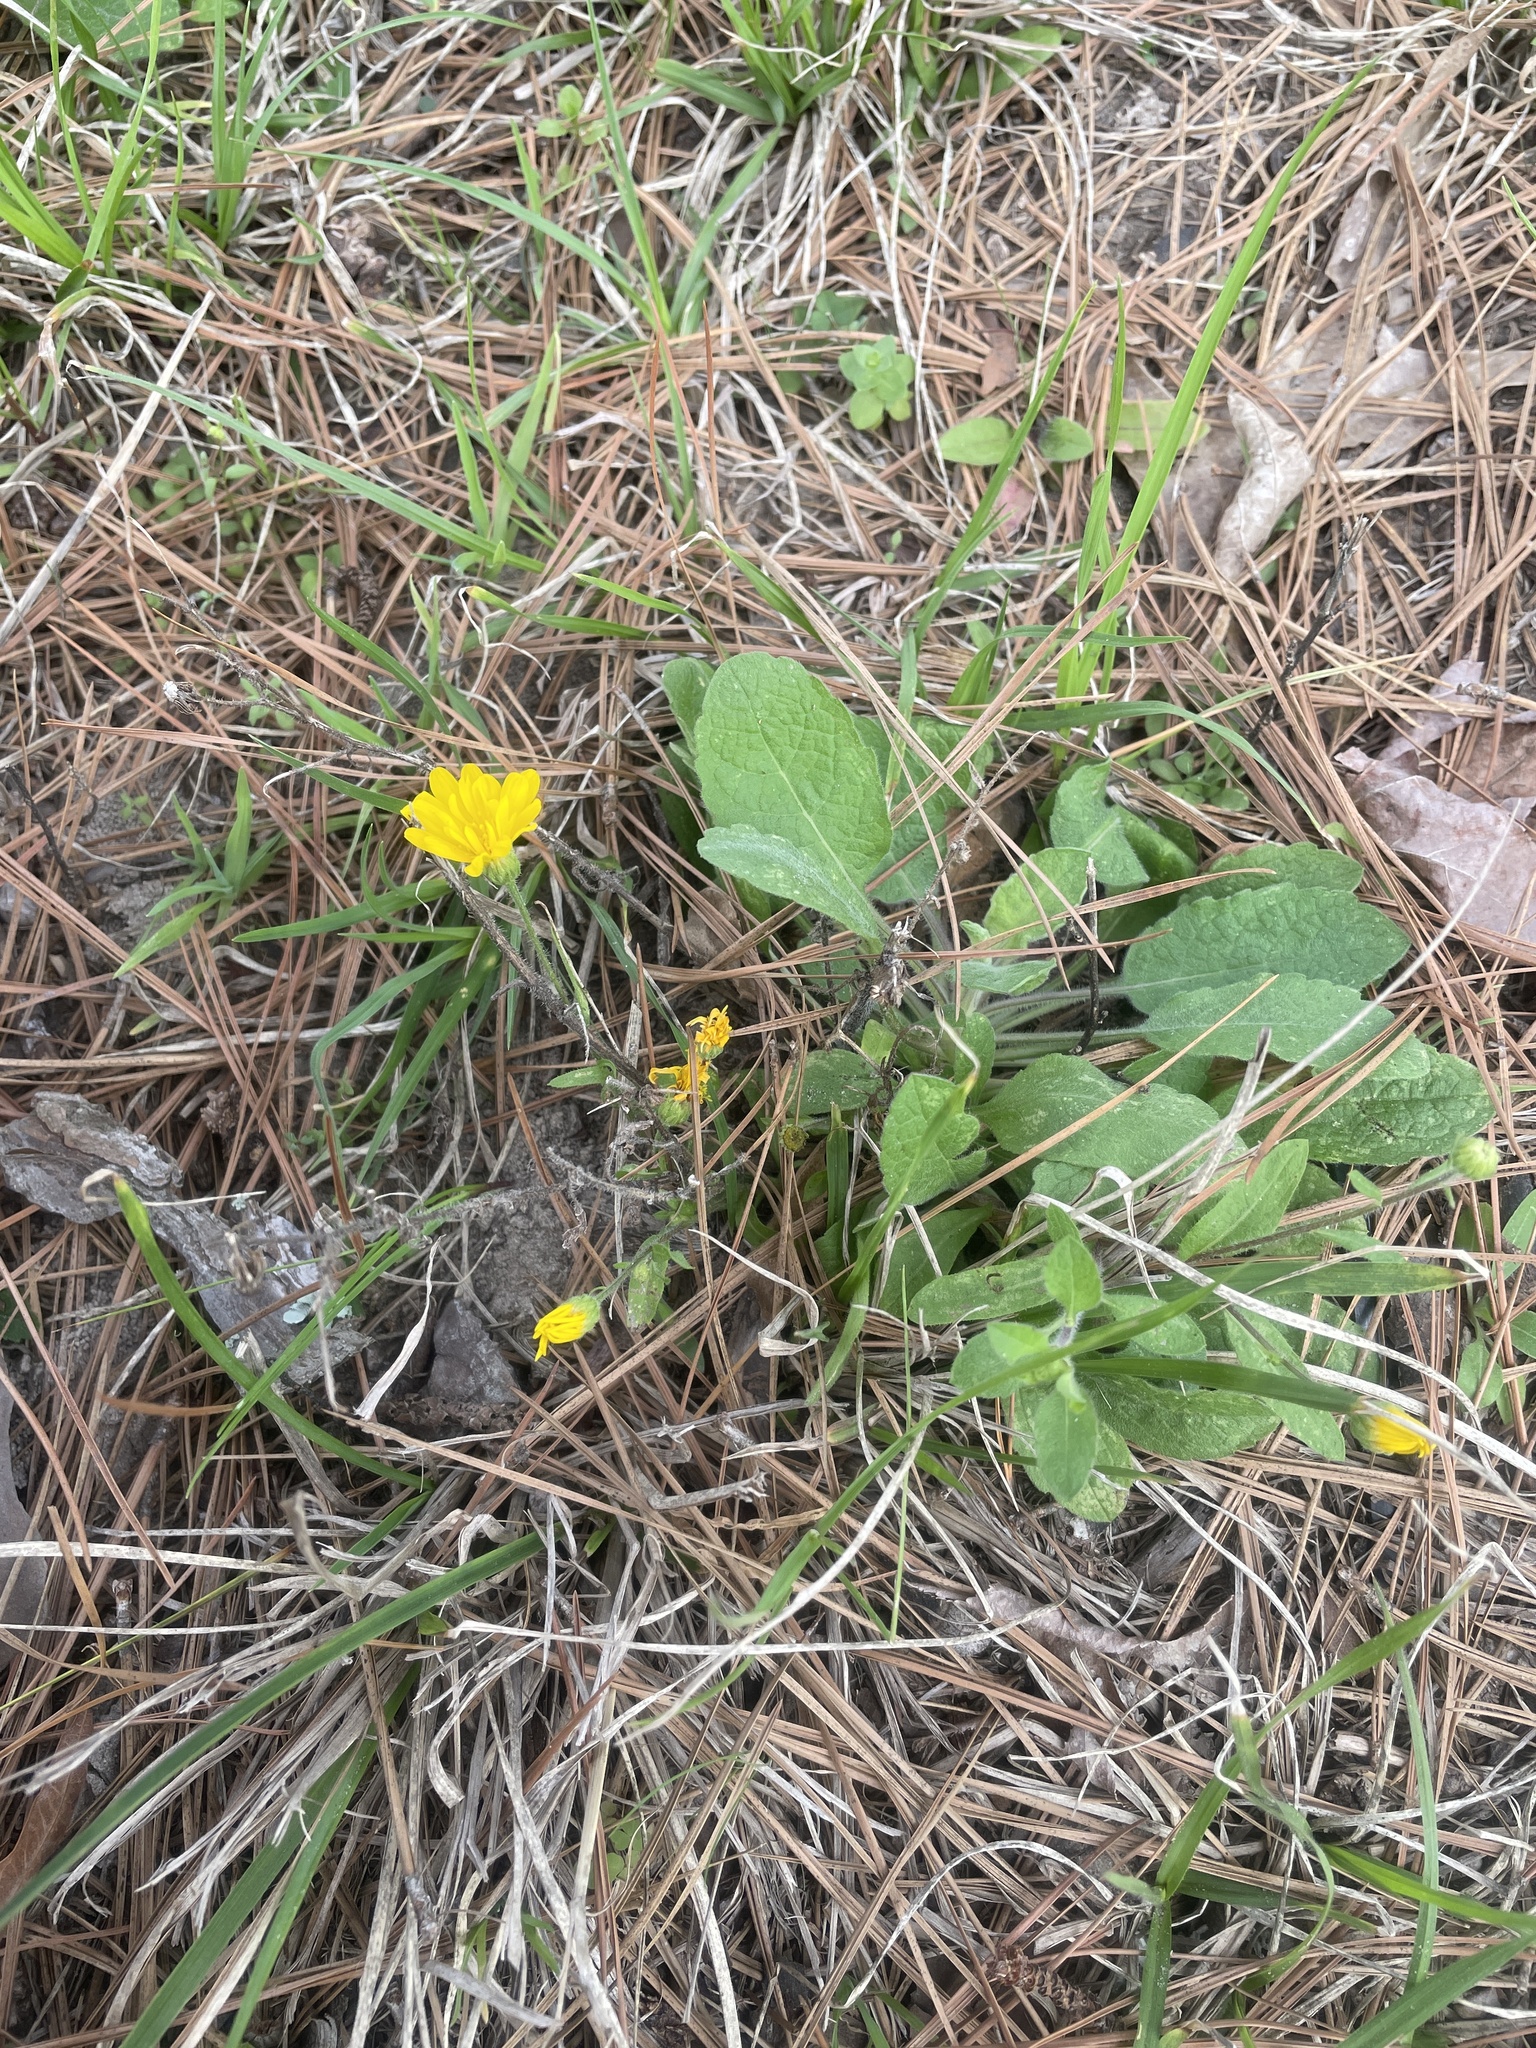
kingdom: Plantae
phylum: Tracheophyta
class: Magnoliopsida
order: Asterales
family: Asteraceae
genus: Heterotheca
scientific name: Heterotheca subaxillaris
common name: Camphorweed
